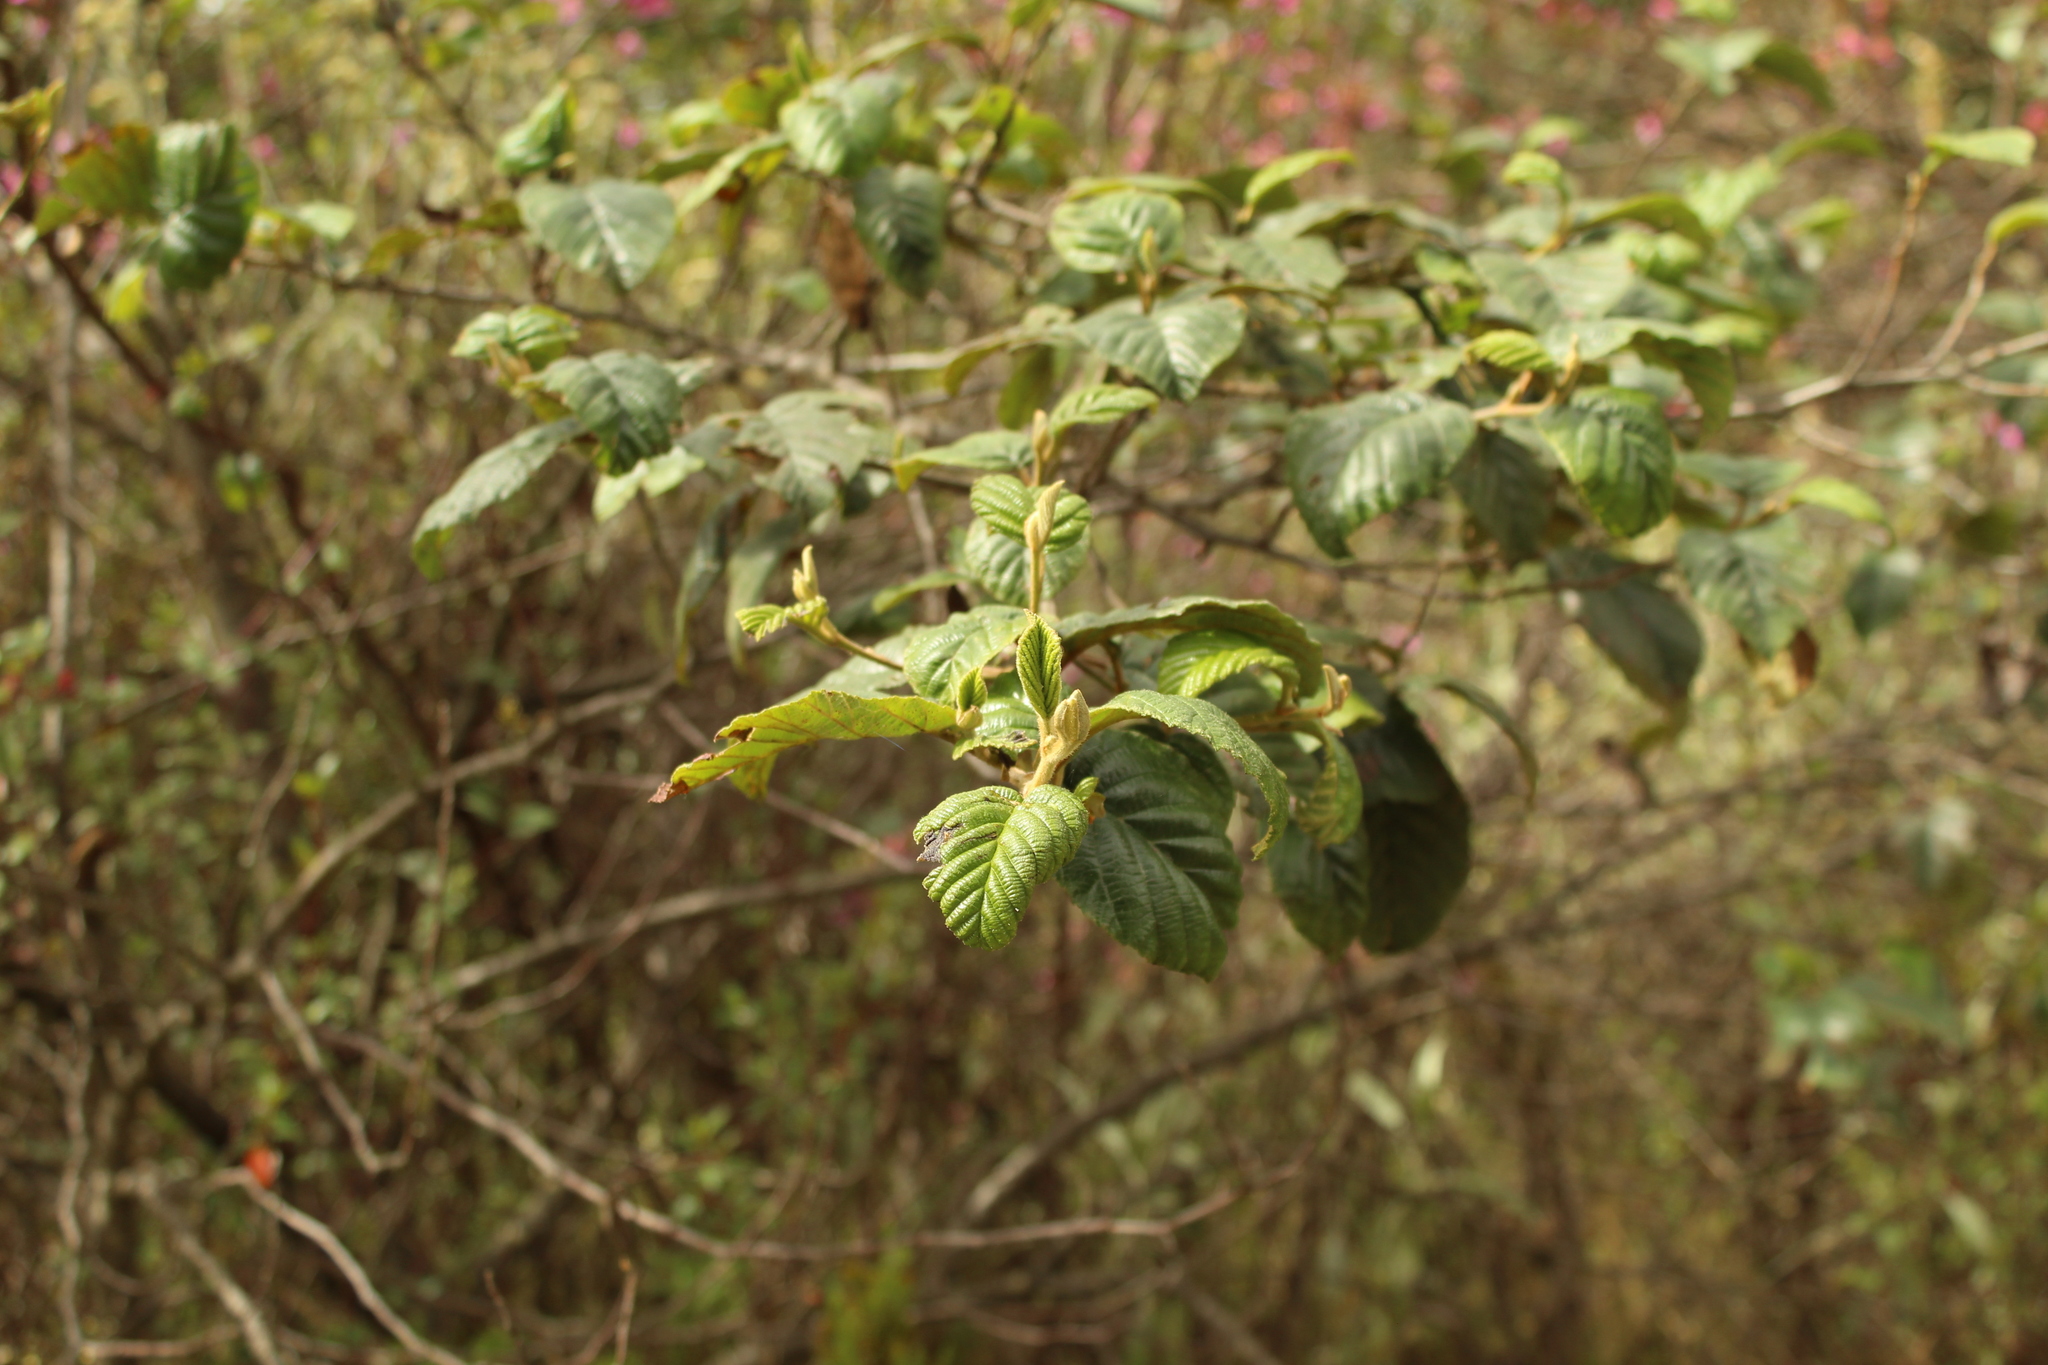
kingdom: Plantae
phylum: Tracheophyta
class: Magnoliopsida
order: Fagales
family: Betulaceae
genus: Alnus
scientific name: Alnus acuminata
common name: Alder
